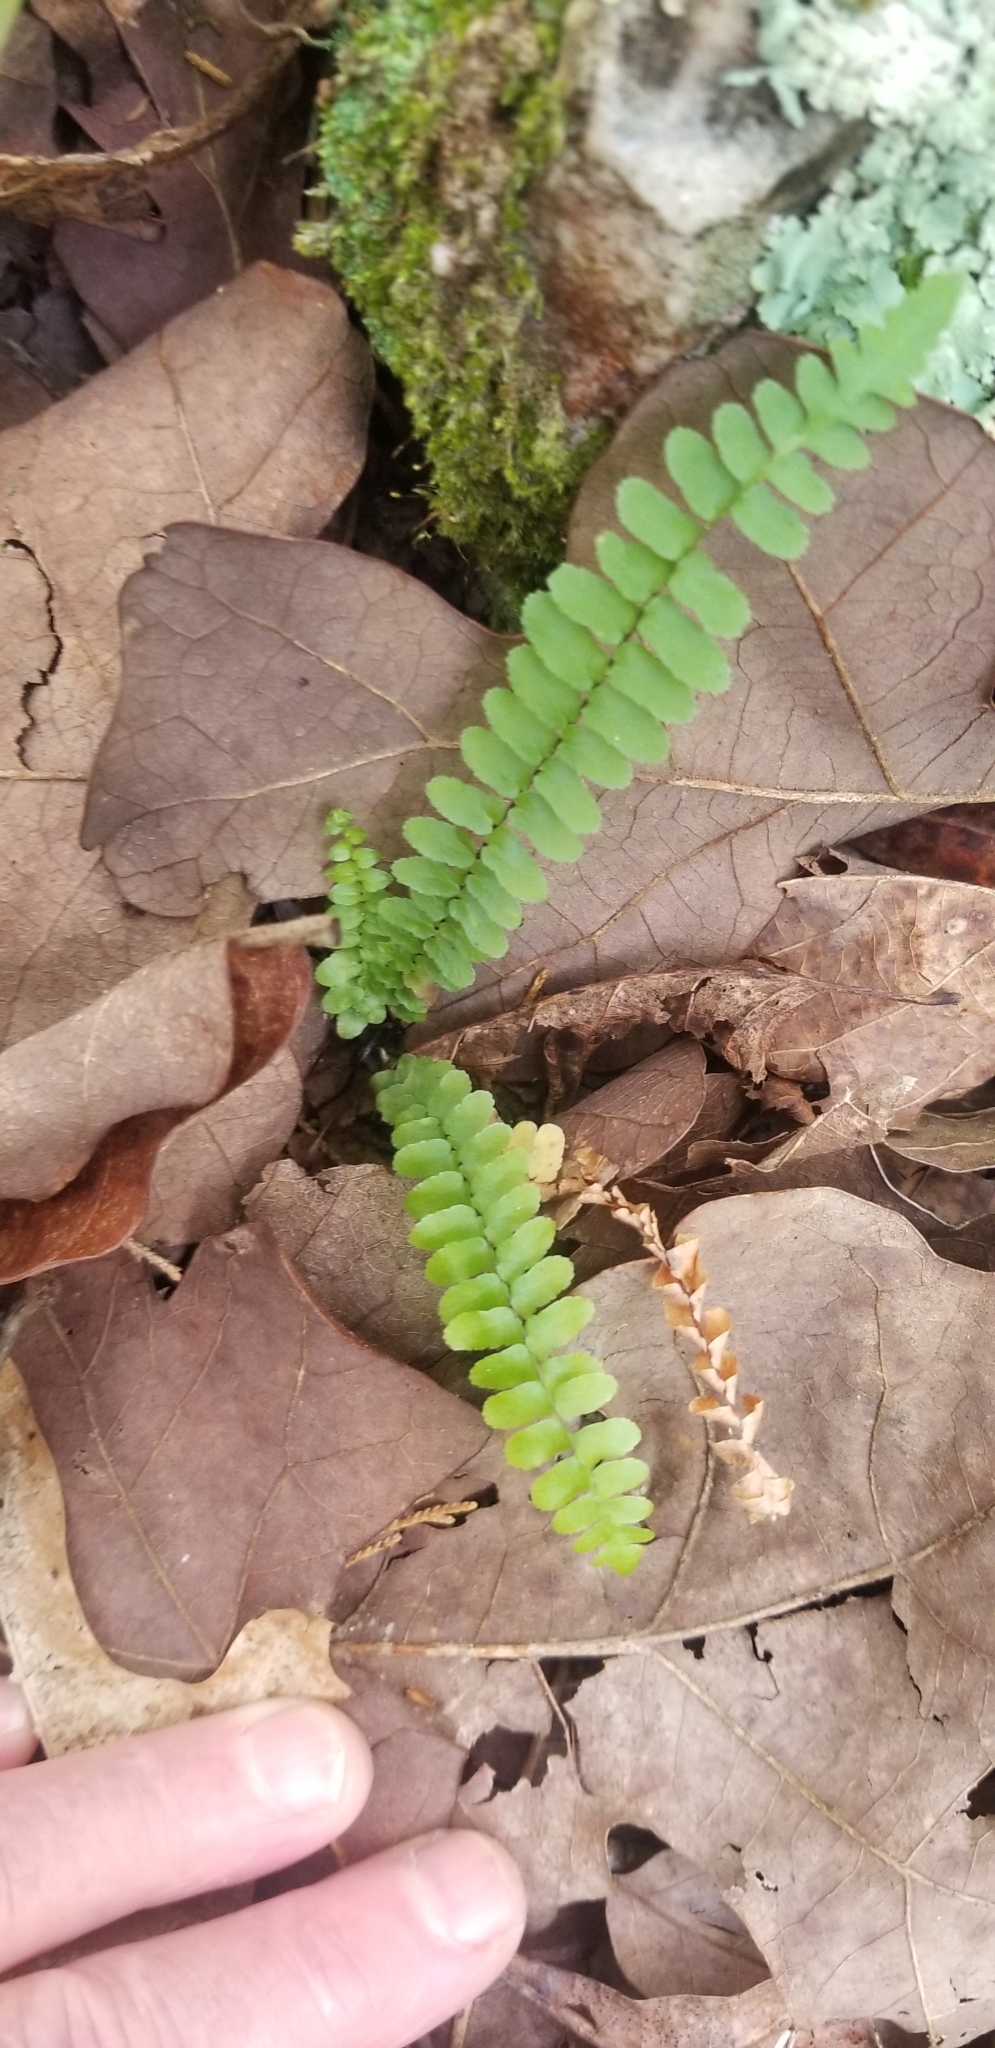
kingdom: Plantae
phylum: Tracheophyta
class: Polypodiopsida
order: Polypodiales
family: Aspleniaceae
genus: Asplenium
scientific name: Asplenium platyneuron
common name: Ebony spleenwort
